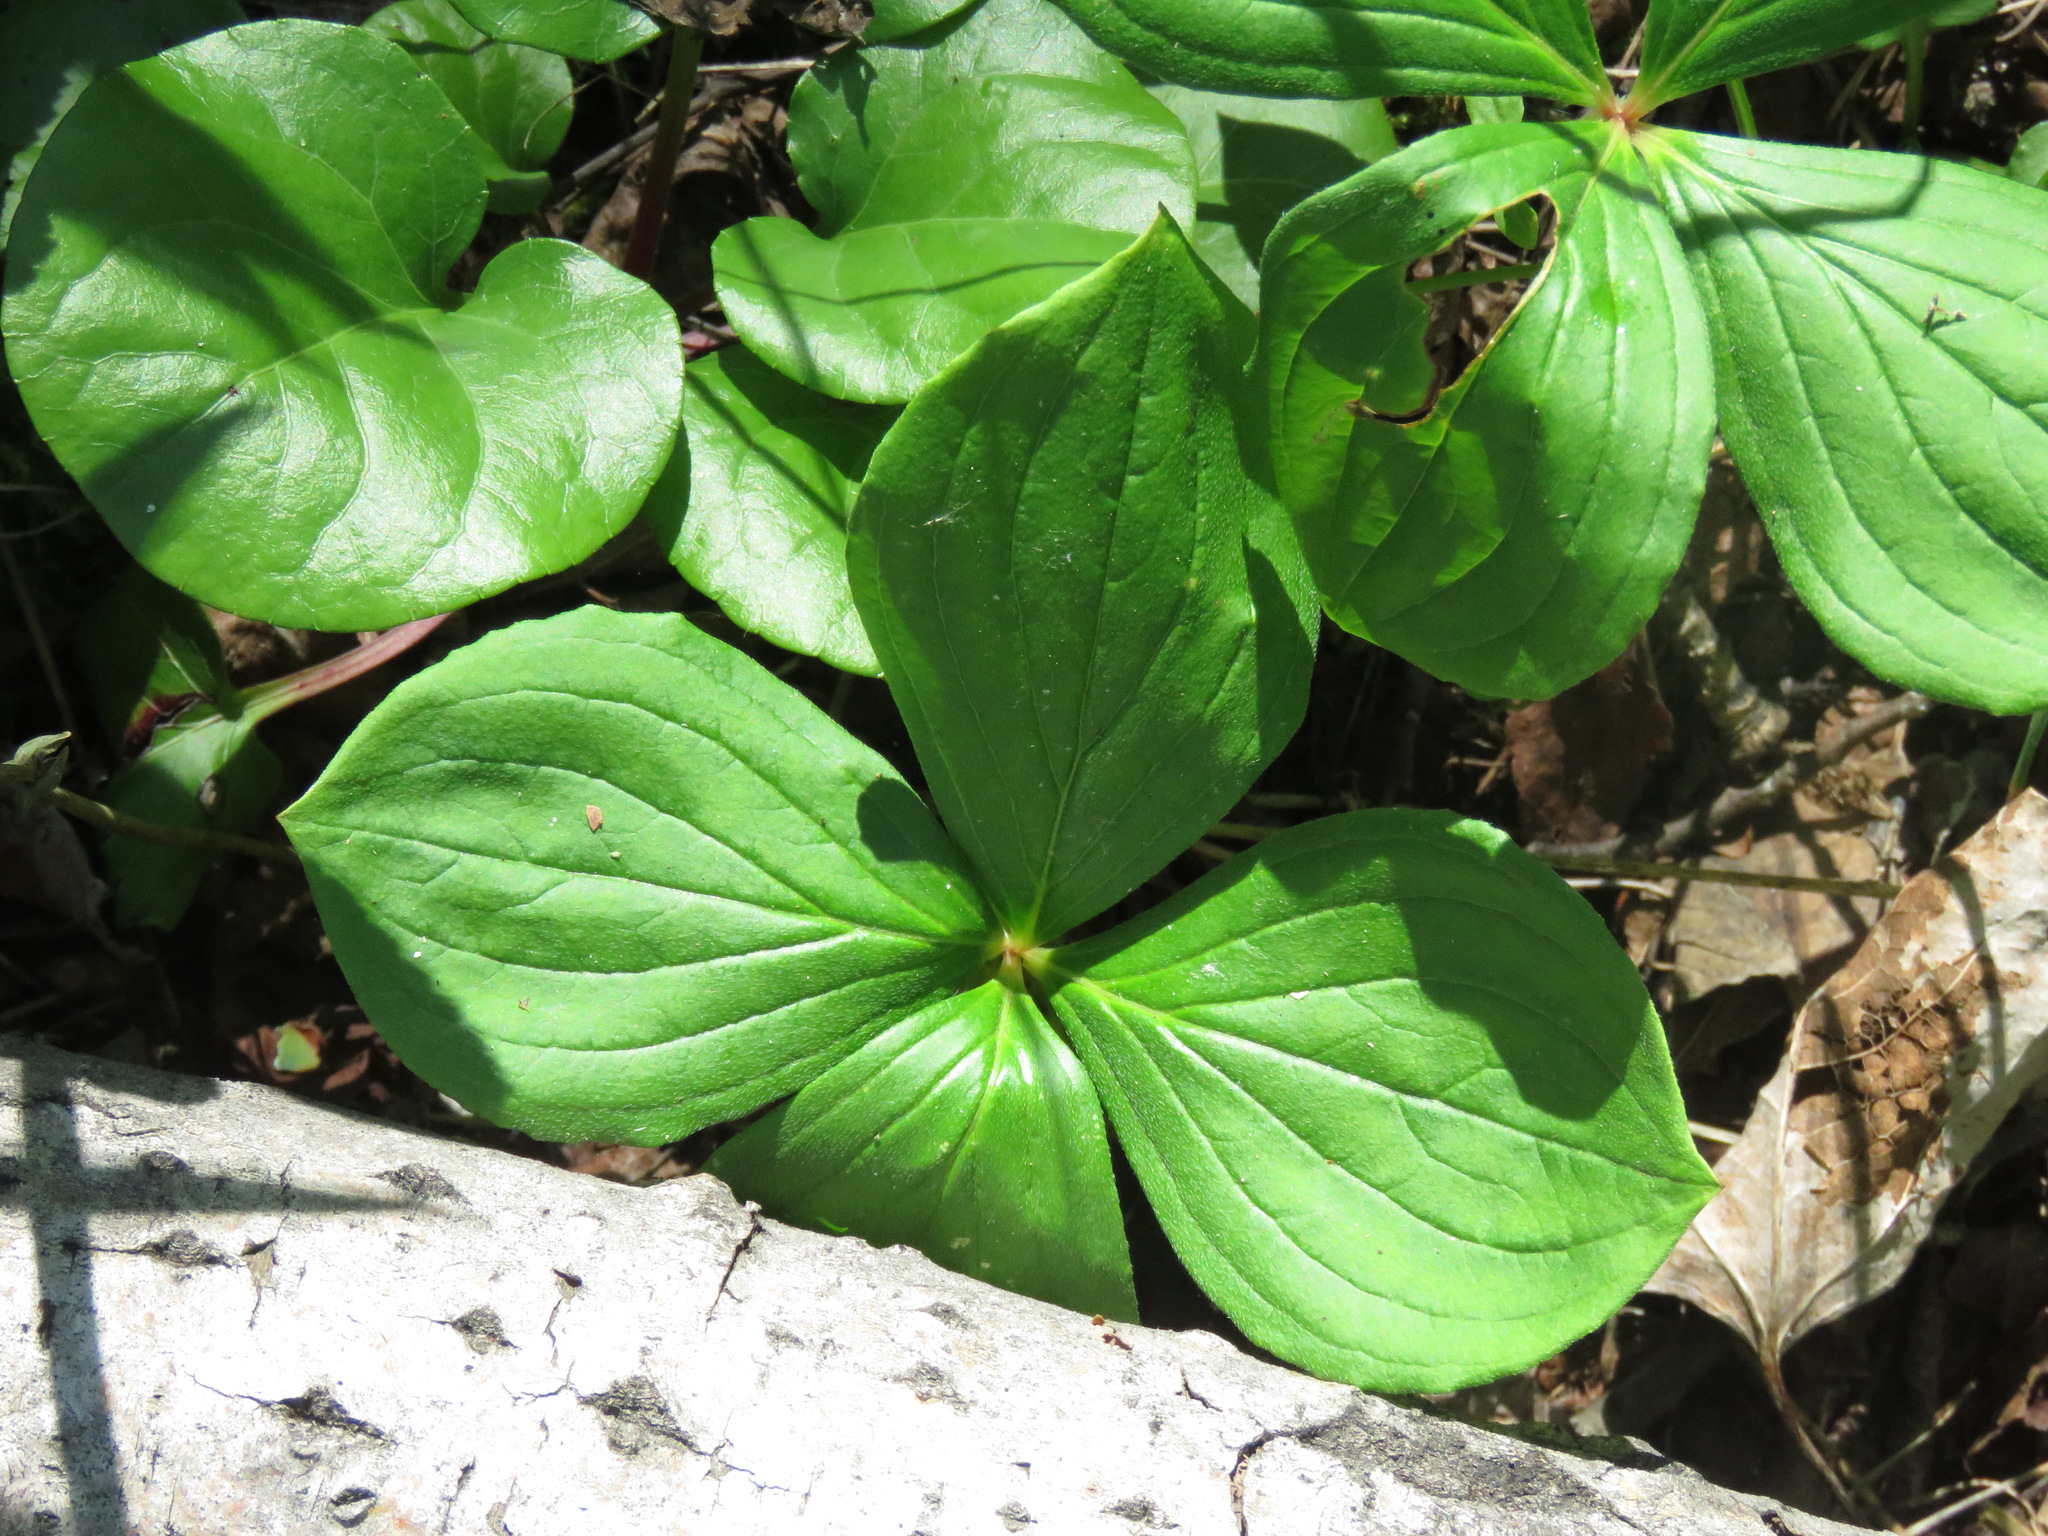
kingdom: Plantae
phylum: Tracheophyta
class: Magnoliopsida
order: Cornales
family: Cornaceae
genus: Cornus
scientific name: Cornus canadensis
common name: Creeping dogwood
